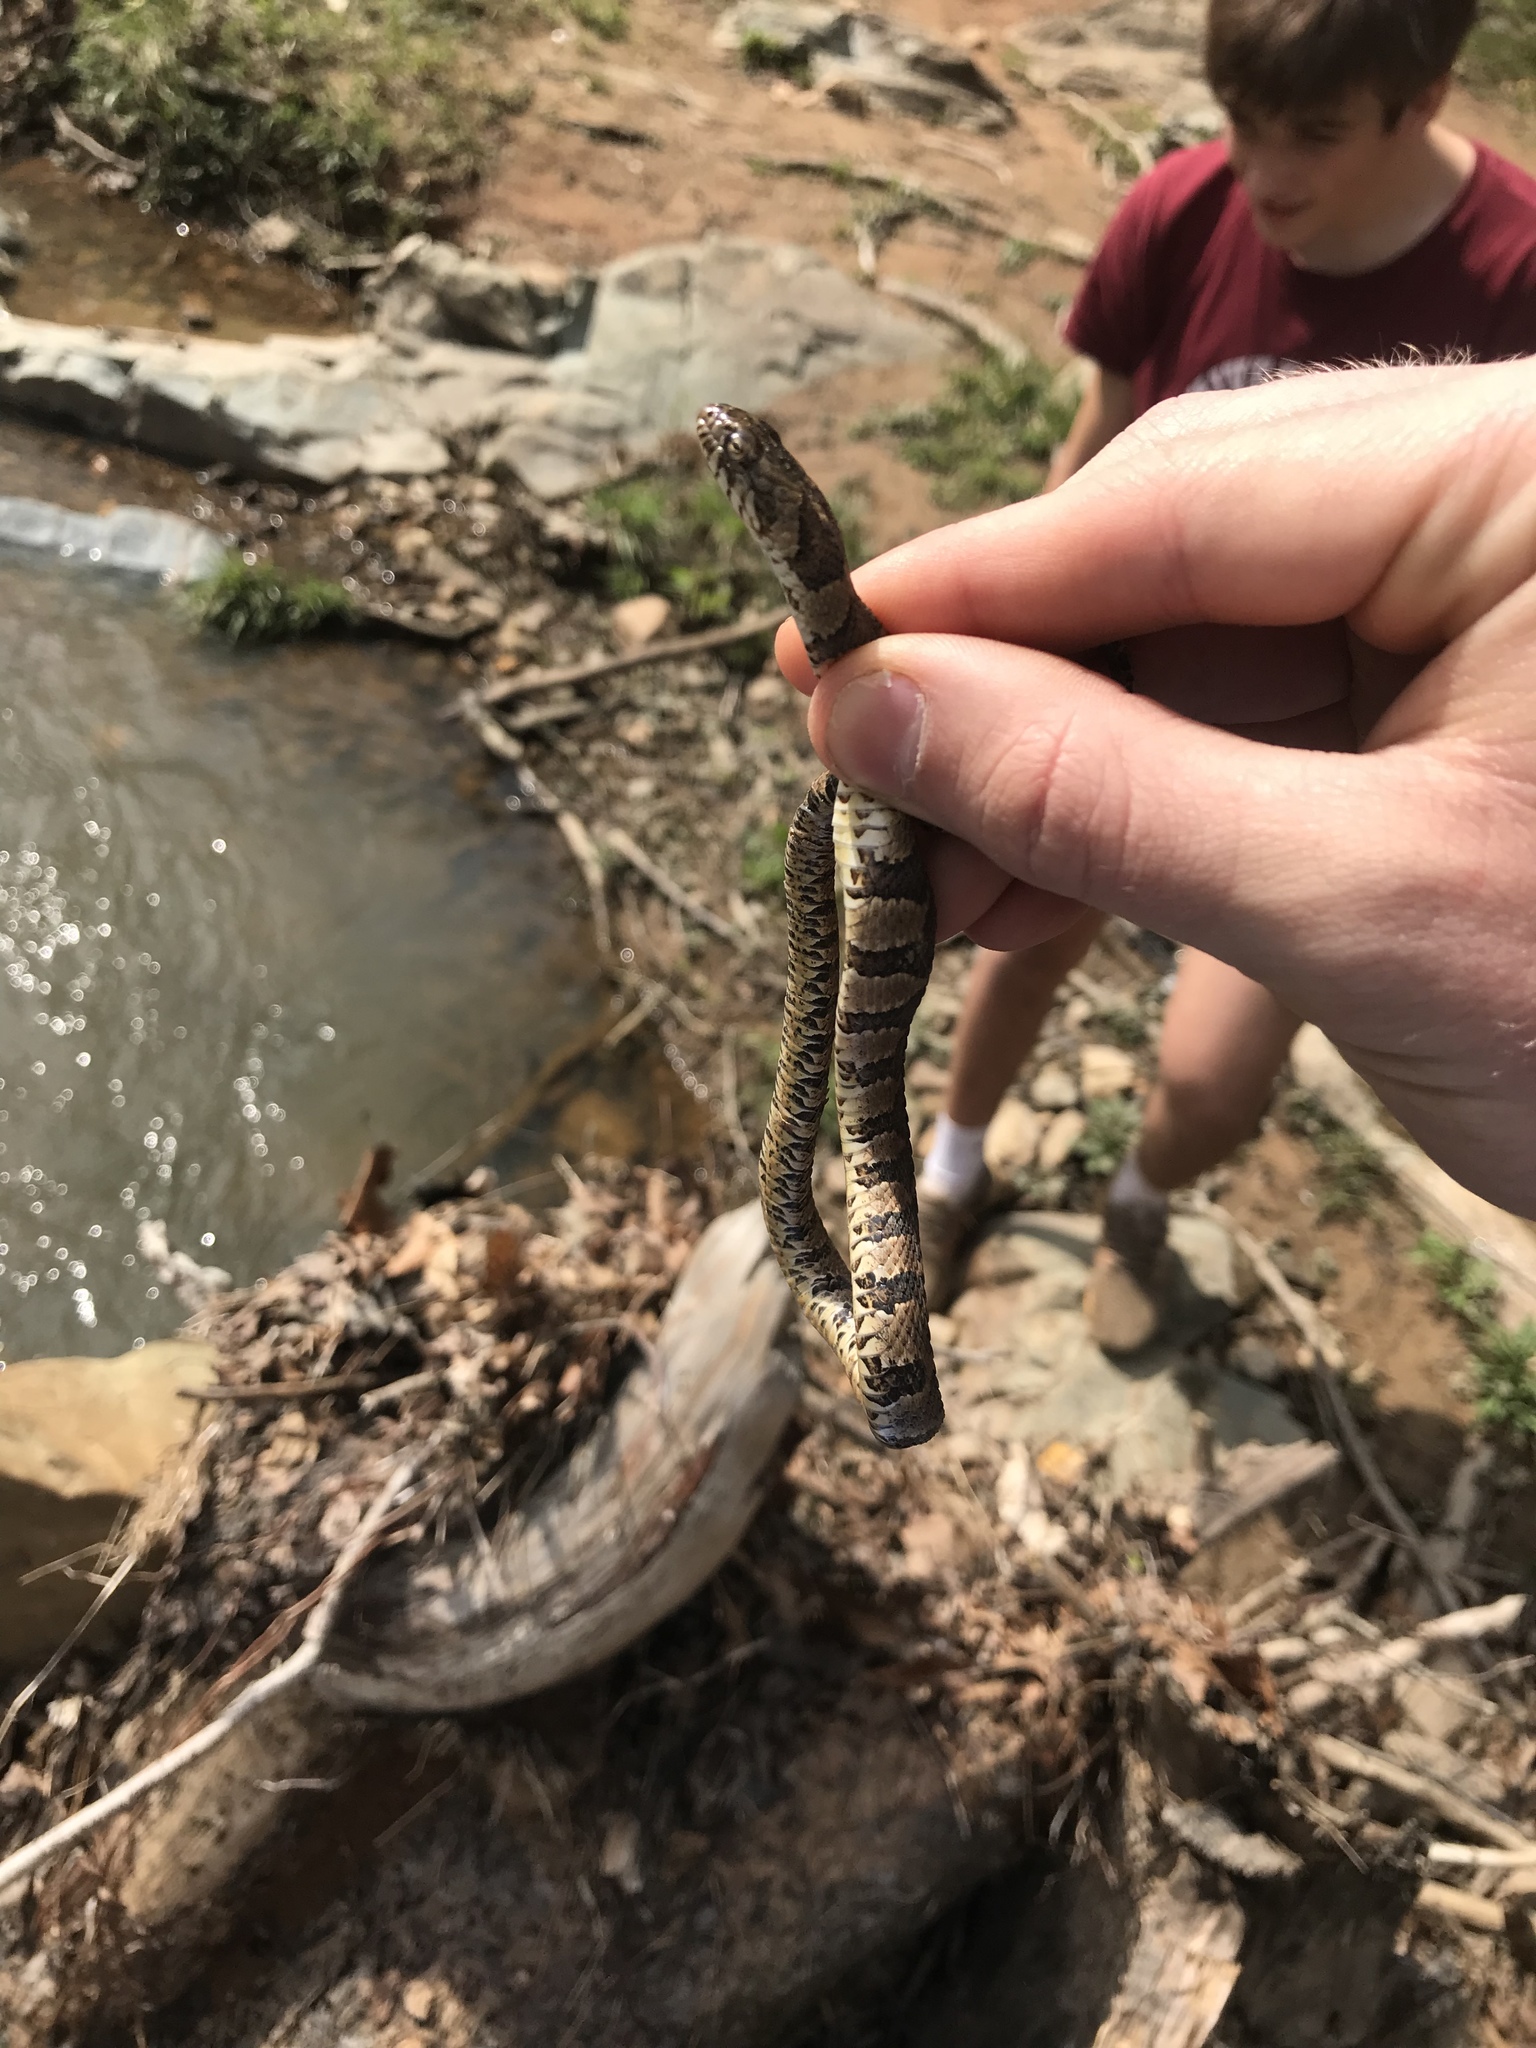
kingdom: Animalia
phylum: Chordata
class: Squamata
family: Colubridae
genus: Nerodia
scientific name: Nerodia sipedon
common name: Northern water snake
